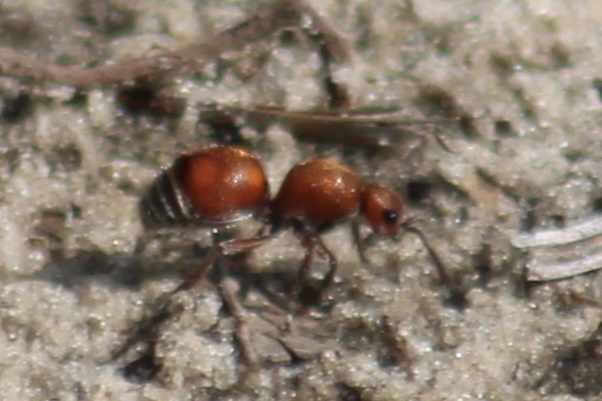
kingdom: Animalia
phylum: Arthropoda
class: Insecta
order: Hymenoptera
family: Mutillidae
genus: Dasymutilla
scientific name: Dasymutilla
